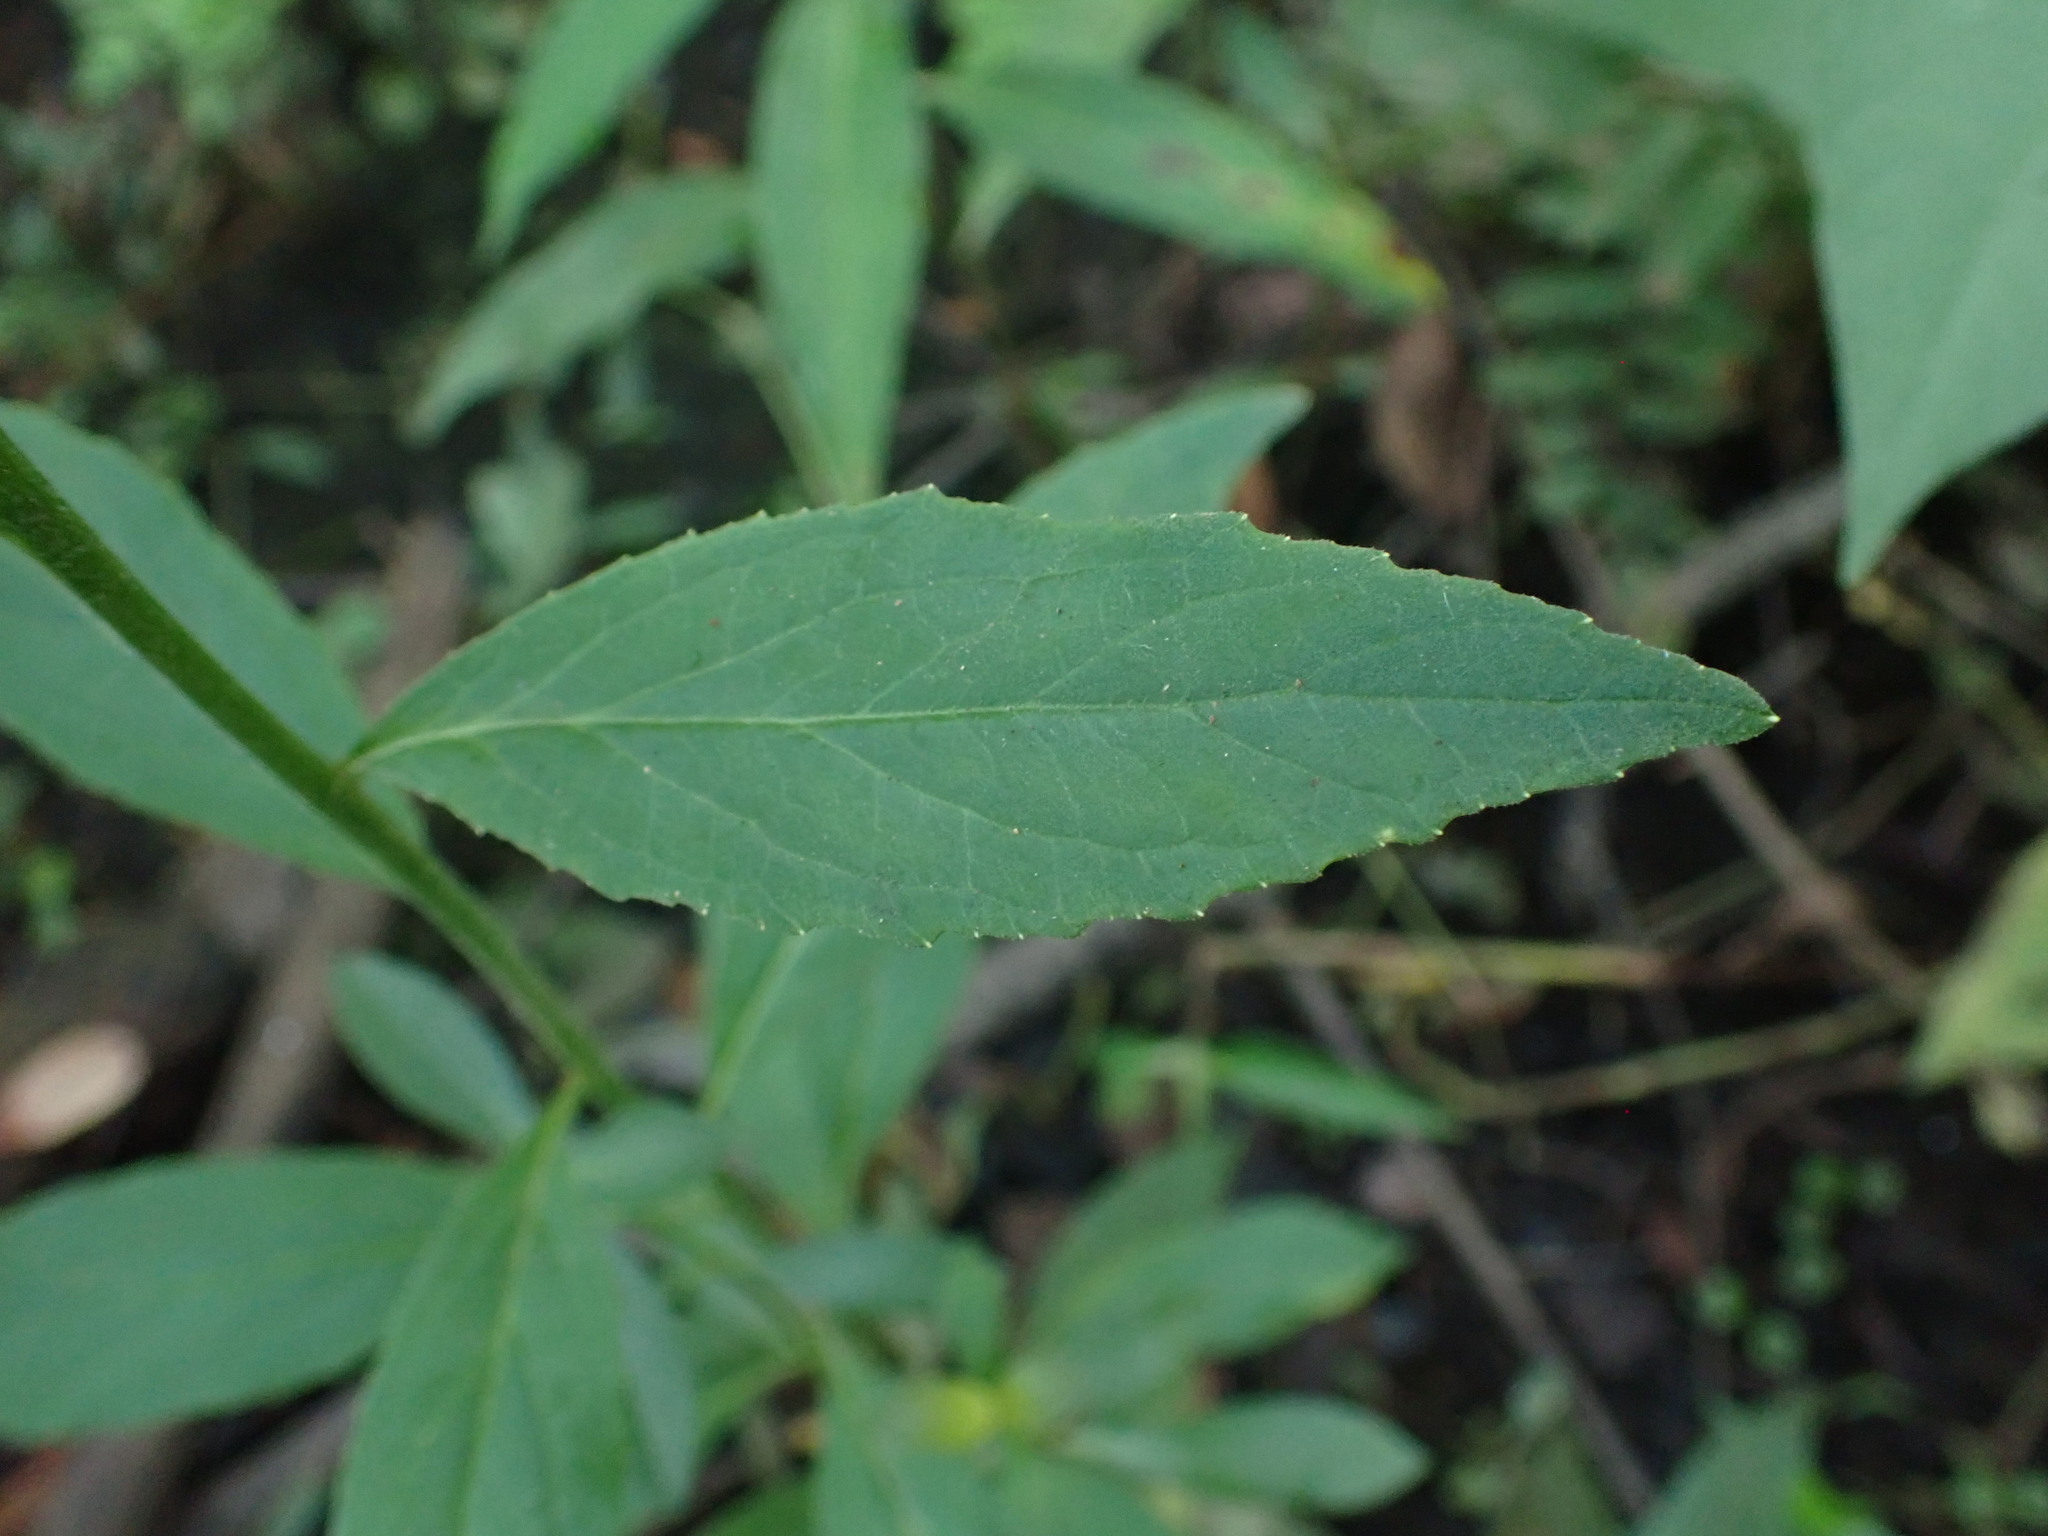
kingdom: Plantae
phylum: Tracheophyta
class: Magnoliopsida
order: Asterales
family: Campanulaceae
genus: Lobelia
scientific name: Lobelia cardinalis
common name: Cardinal flower
